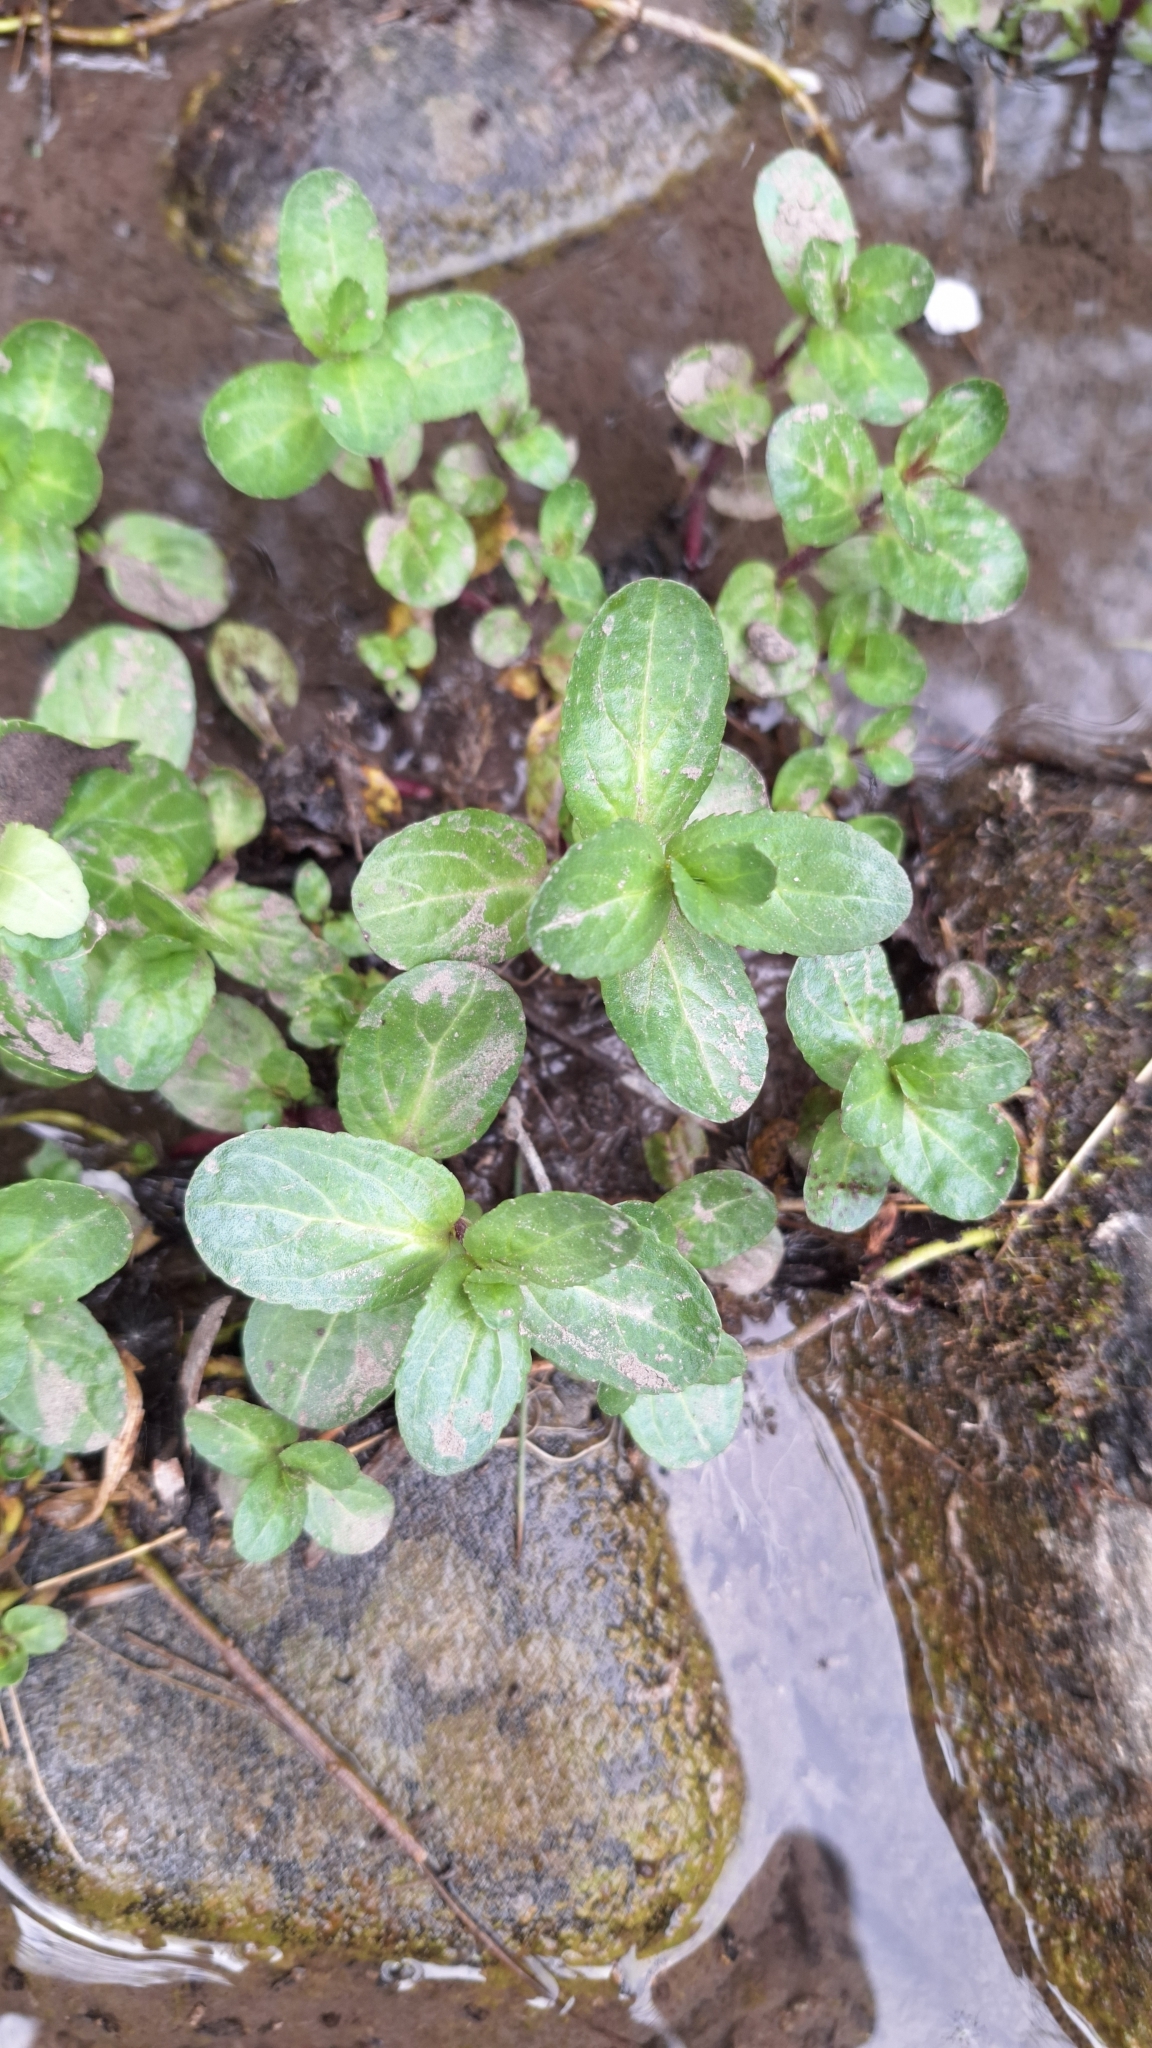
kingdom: Plantae
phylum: Tracheophyta
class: Magnoliopsida
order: Lamiales
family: Plantaginaceae
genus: Veronica
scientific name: Veronica beccabunga
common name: Brooklime
